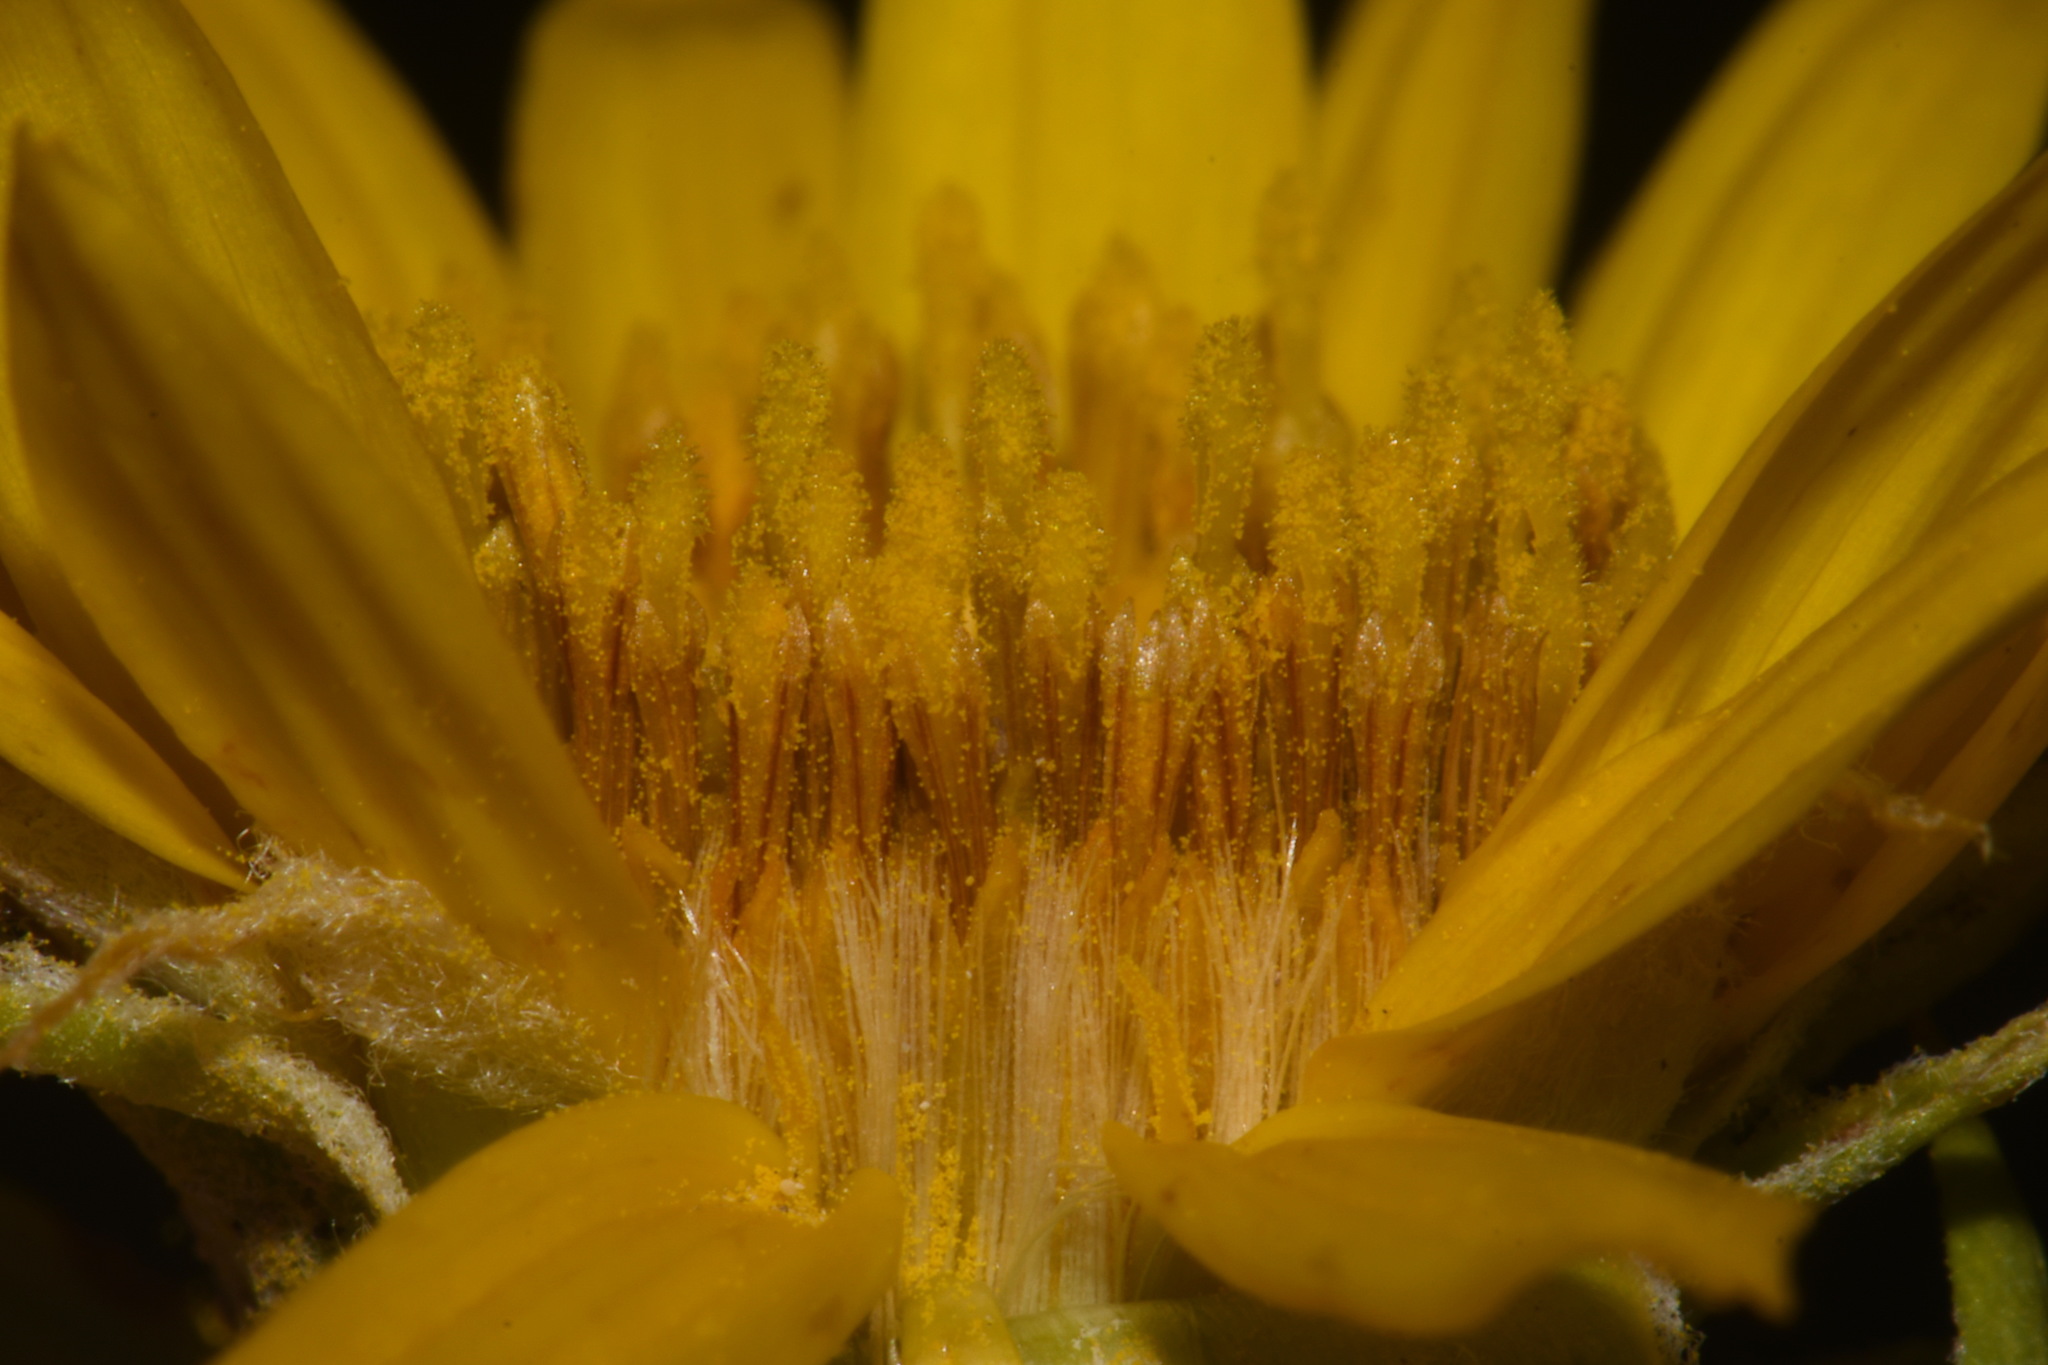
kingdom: Plantae
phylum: Tracheophyta
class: Magnoliopsida
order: Asterales
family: Asteraceae
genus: Oonopsis
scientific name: Oonopsis foliosa
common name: Leafy goldenweed
